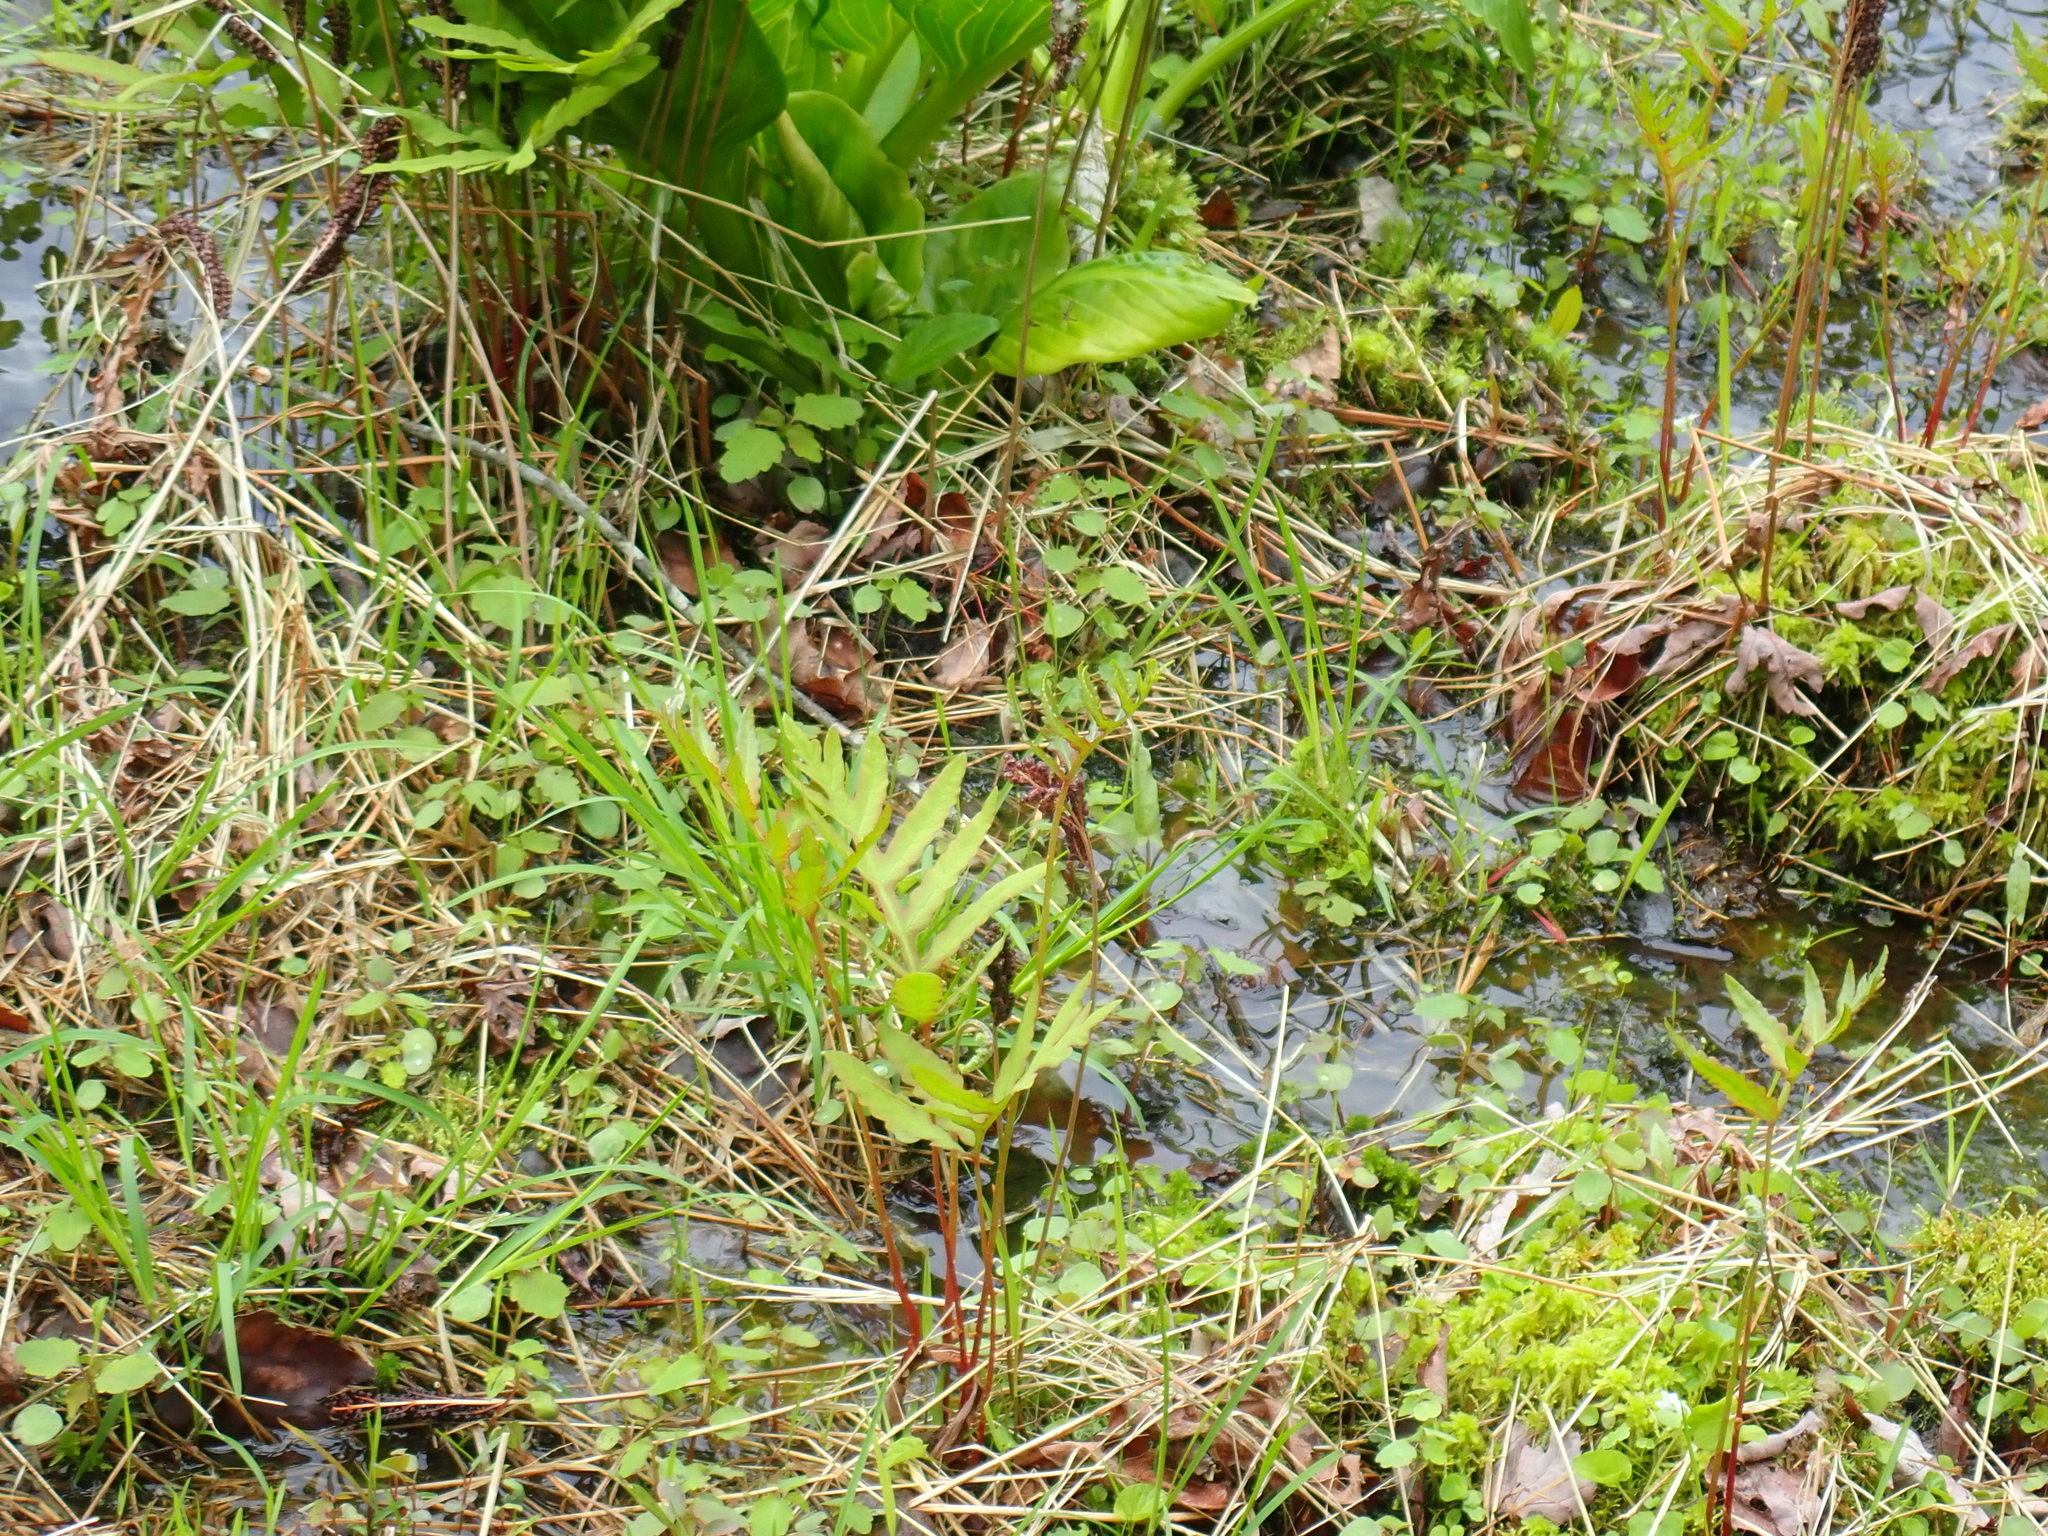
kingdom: Plantae
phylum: Tracheophyta
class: Polypodiopsida
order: Polypodiales
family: Onocleaceae
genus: Onoclea
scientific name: Onoclea sensibilis
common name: Sensitive fern
